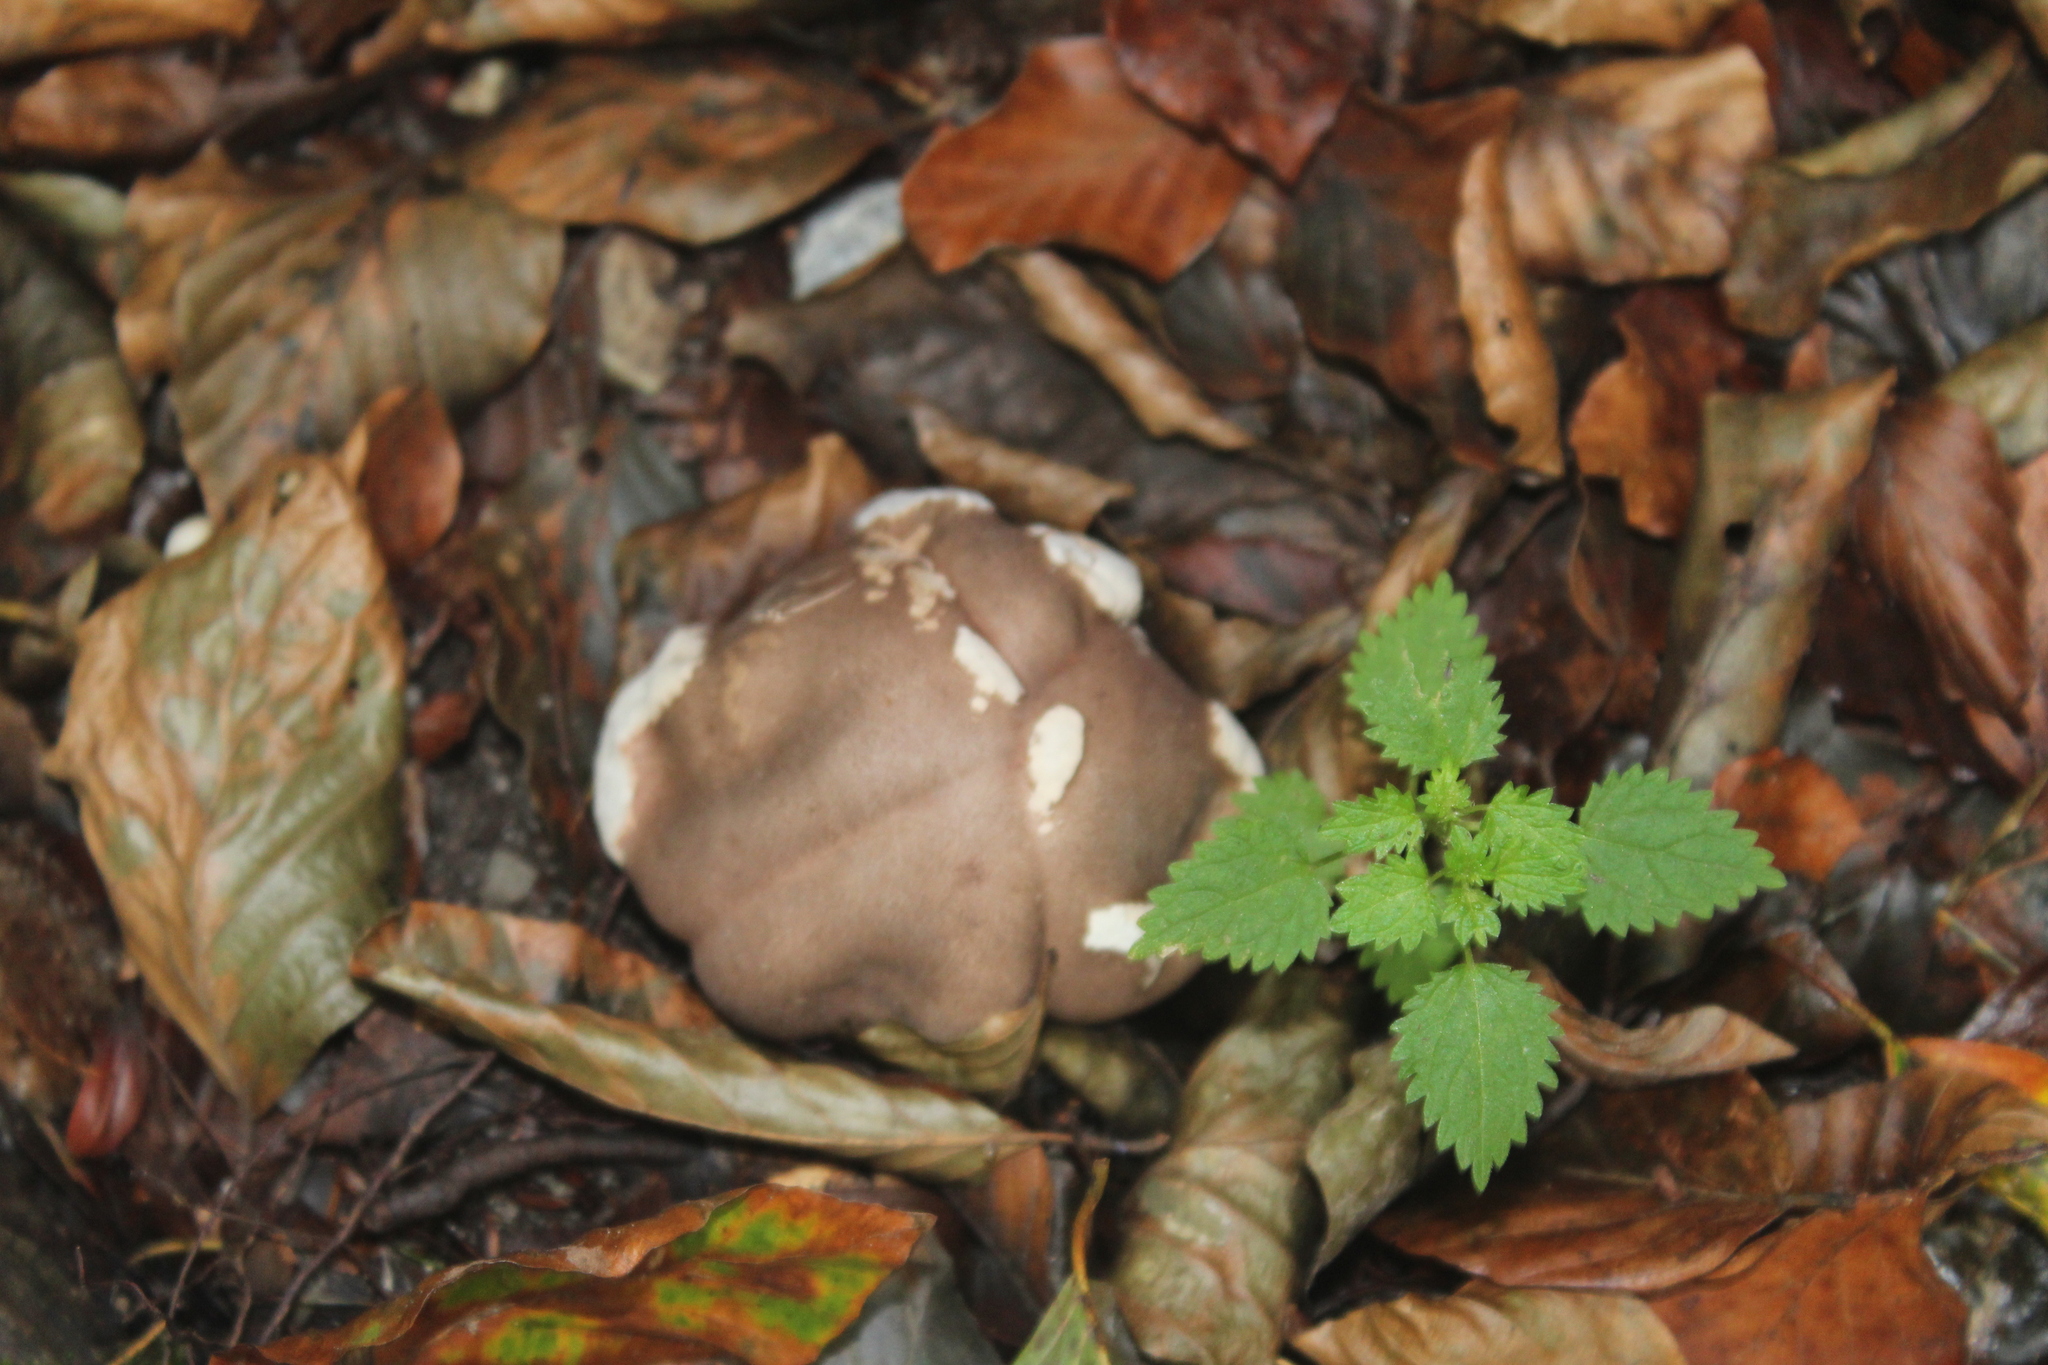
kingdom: Fungi
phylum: Basidiomycota
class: Agaricomycetes
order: Phallales
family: Phallaceae
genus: Clathrus
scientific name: Clathrus archeri
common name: Devil's fingers
